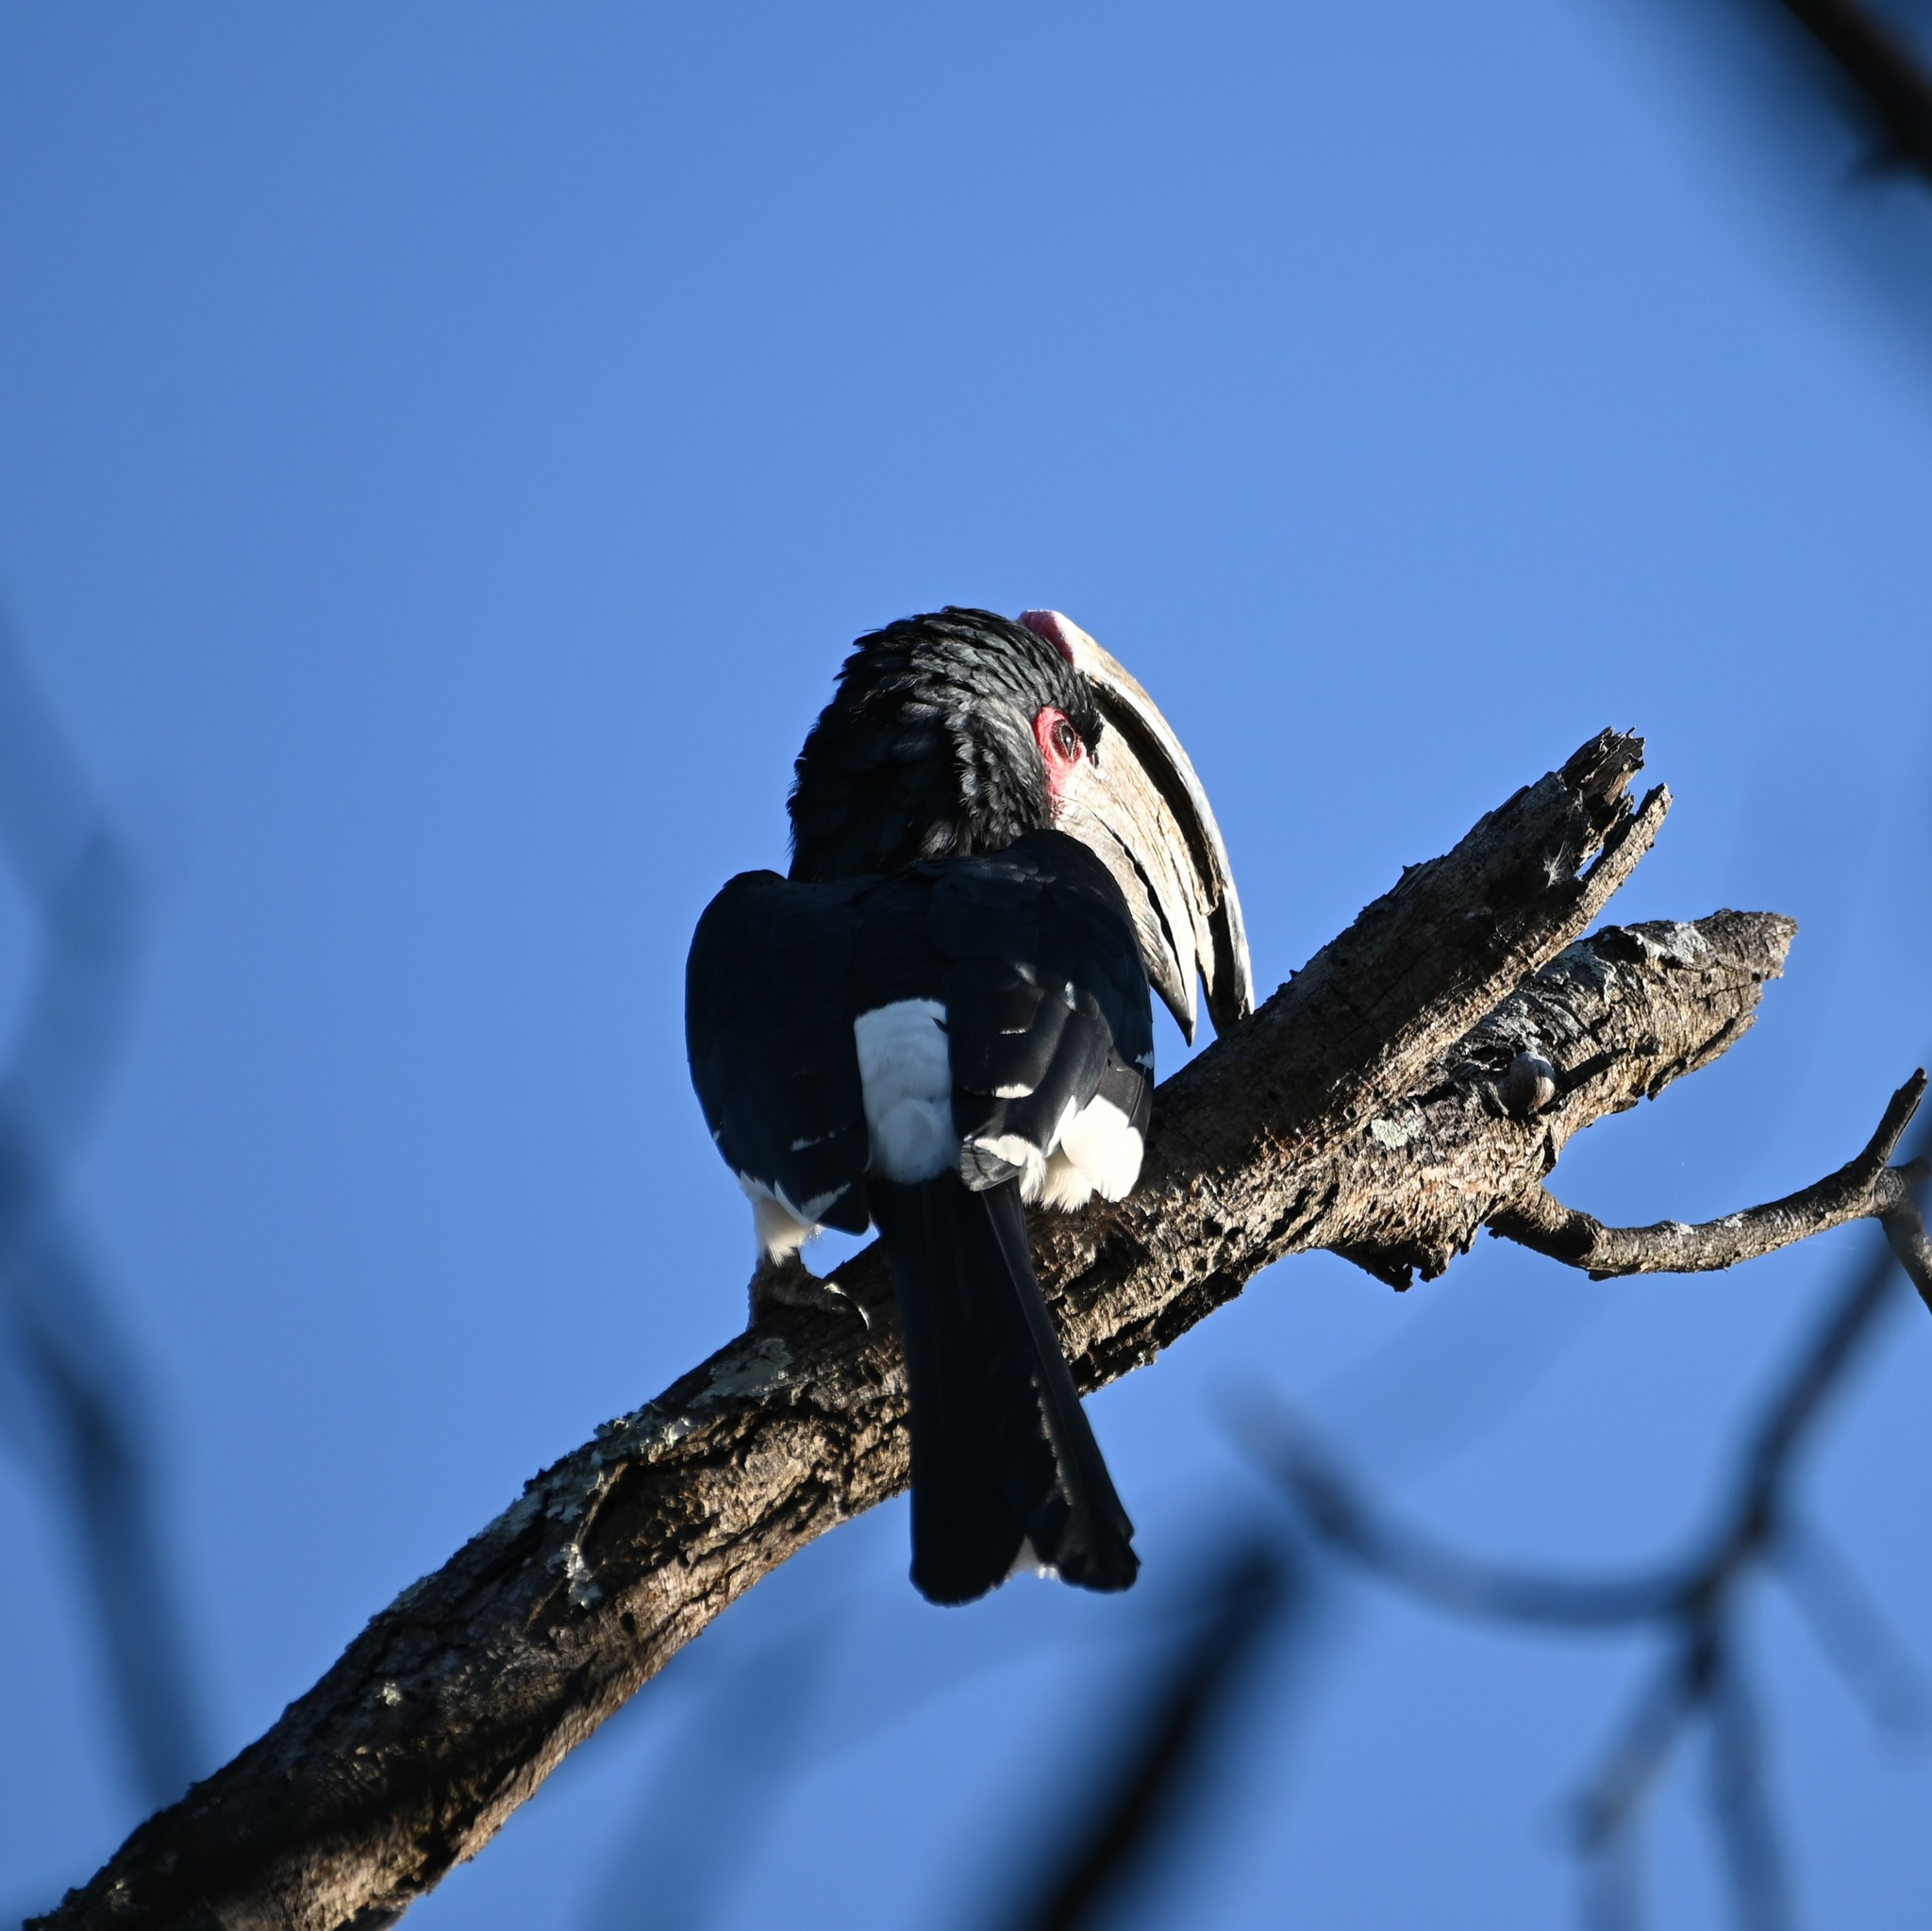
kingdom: Animalia
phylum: Chordata
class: Aves
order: Bucerotiformes
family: Bucerotidae
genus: Bycanistes
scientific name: Bycanistes bucinator
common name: Trumpeter hornbill
